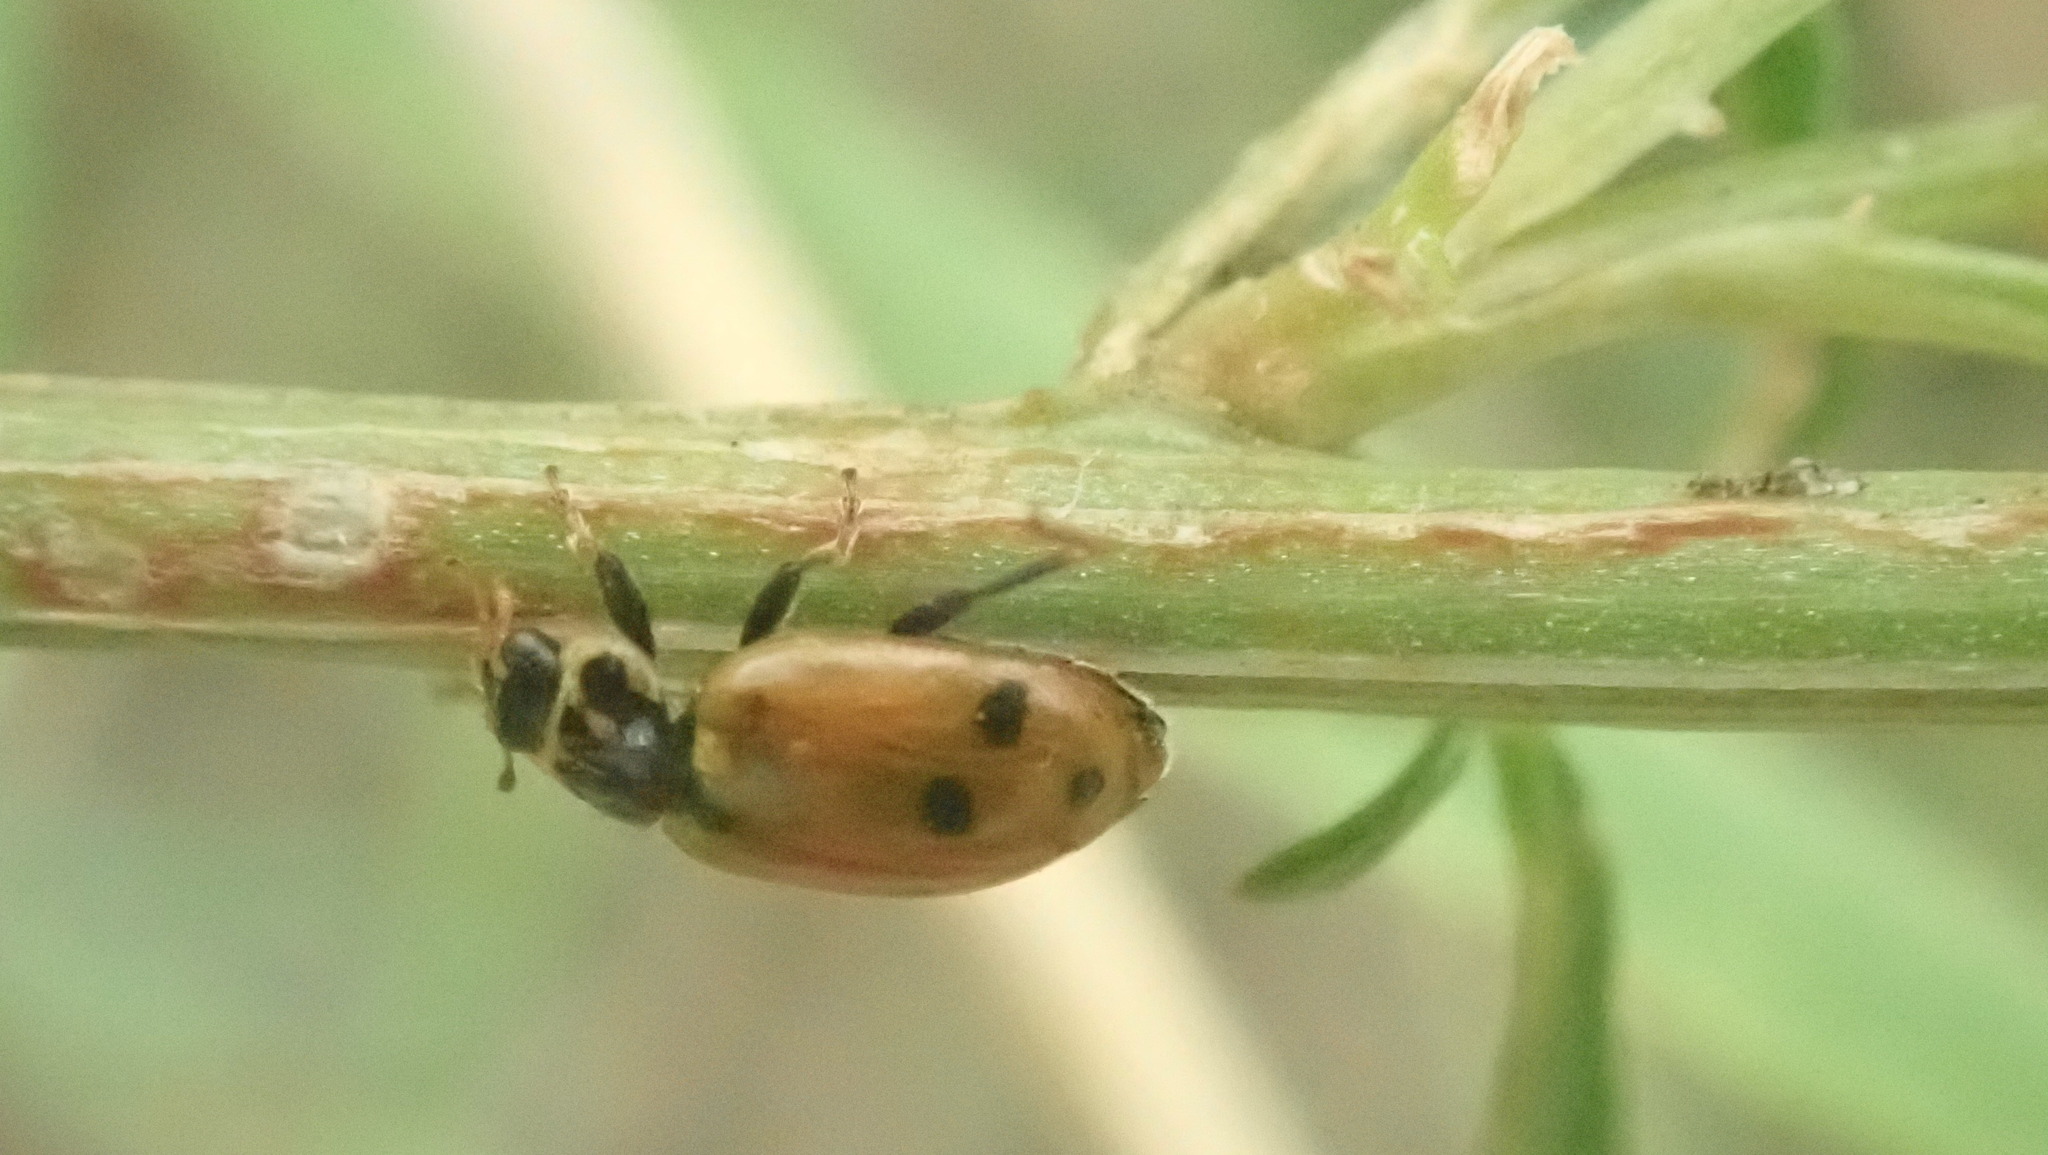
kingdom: Animalia
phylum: Arthropoda
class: Insecta
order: Coleoptera
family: Coccinellidae
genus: Hippodamia
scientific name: Hippodamia variegata
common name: Ladybird beetle
